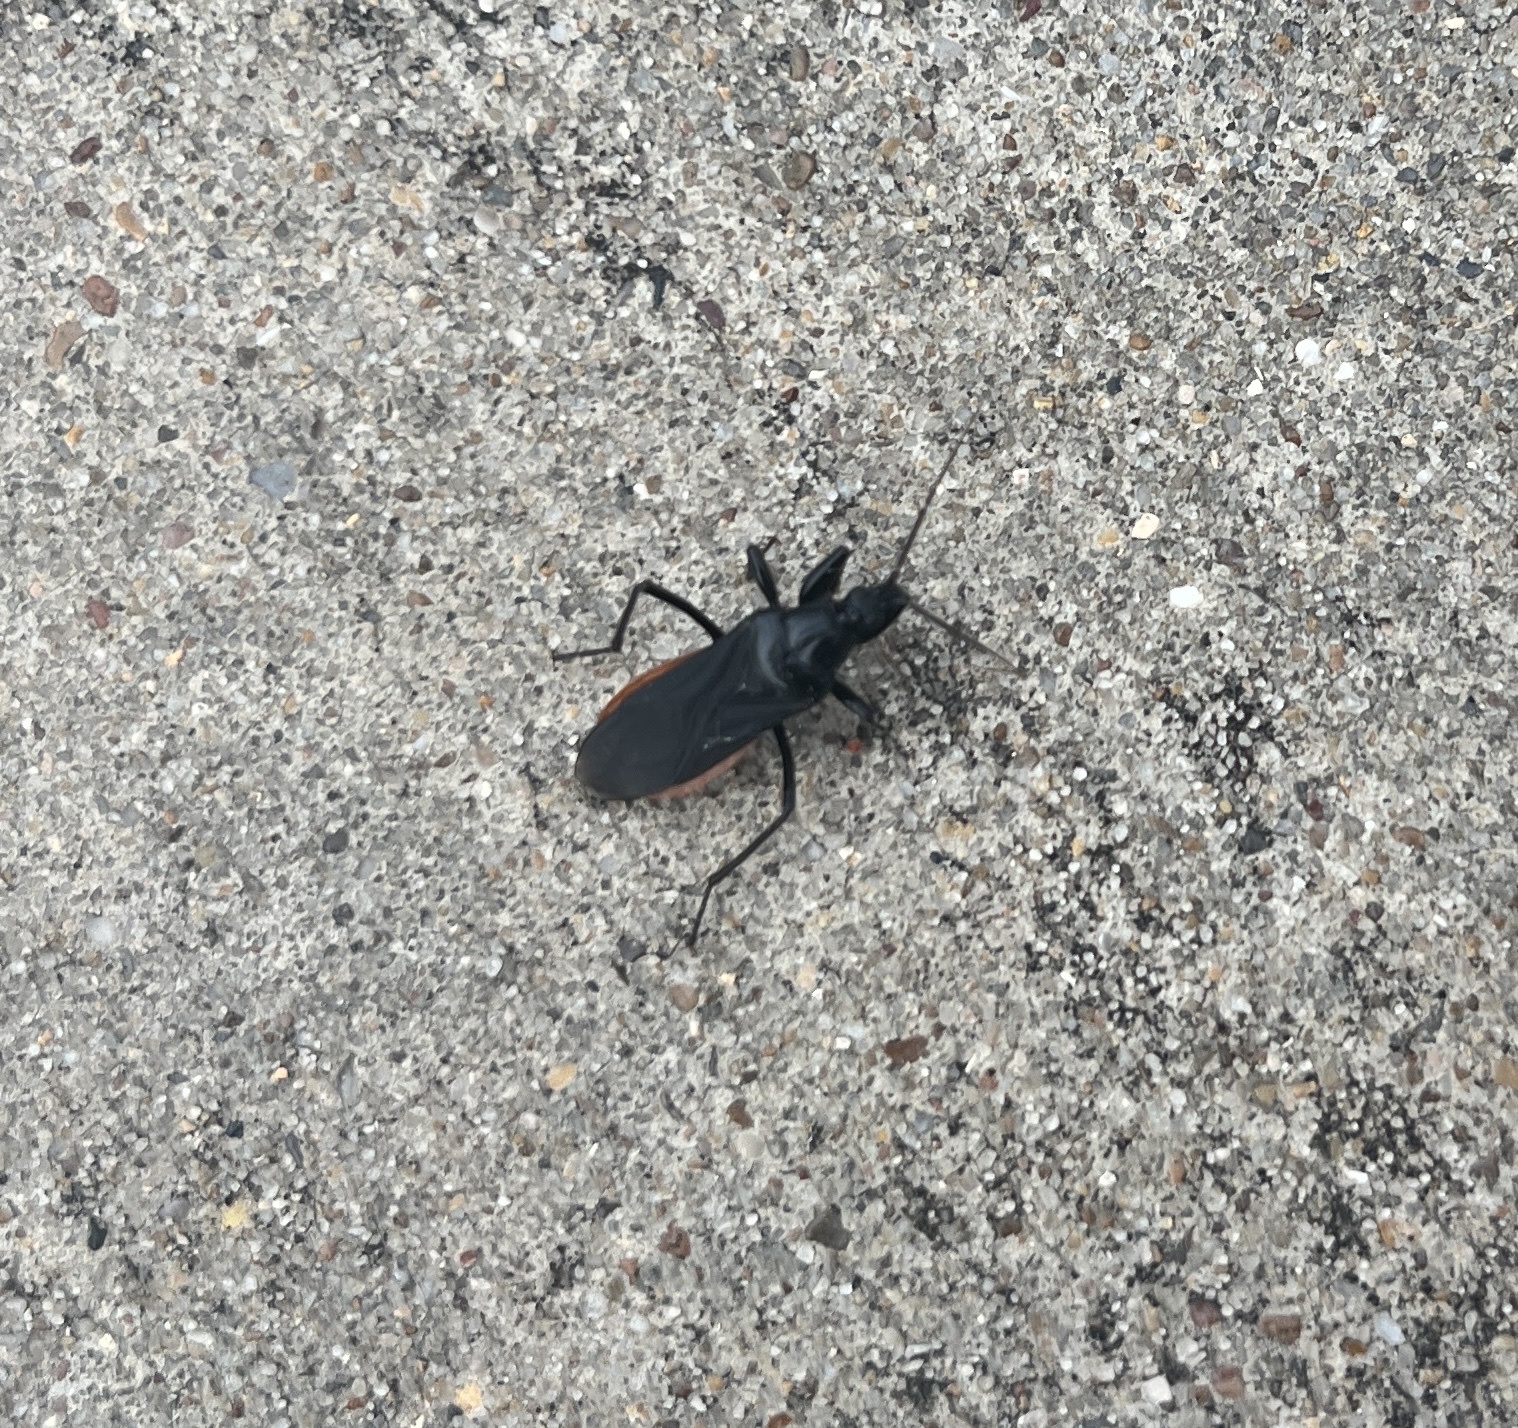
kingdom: Animalia
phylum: Arthropoda
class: Insecta
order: Hemiptera
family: Reduviidae
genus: Melanolestes
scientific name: Melanolestes picipes
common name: Assassin bug
